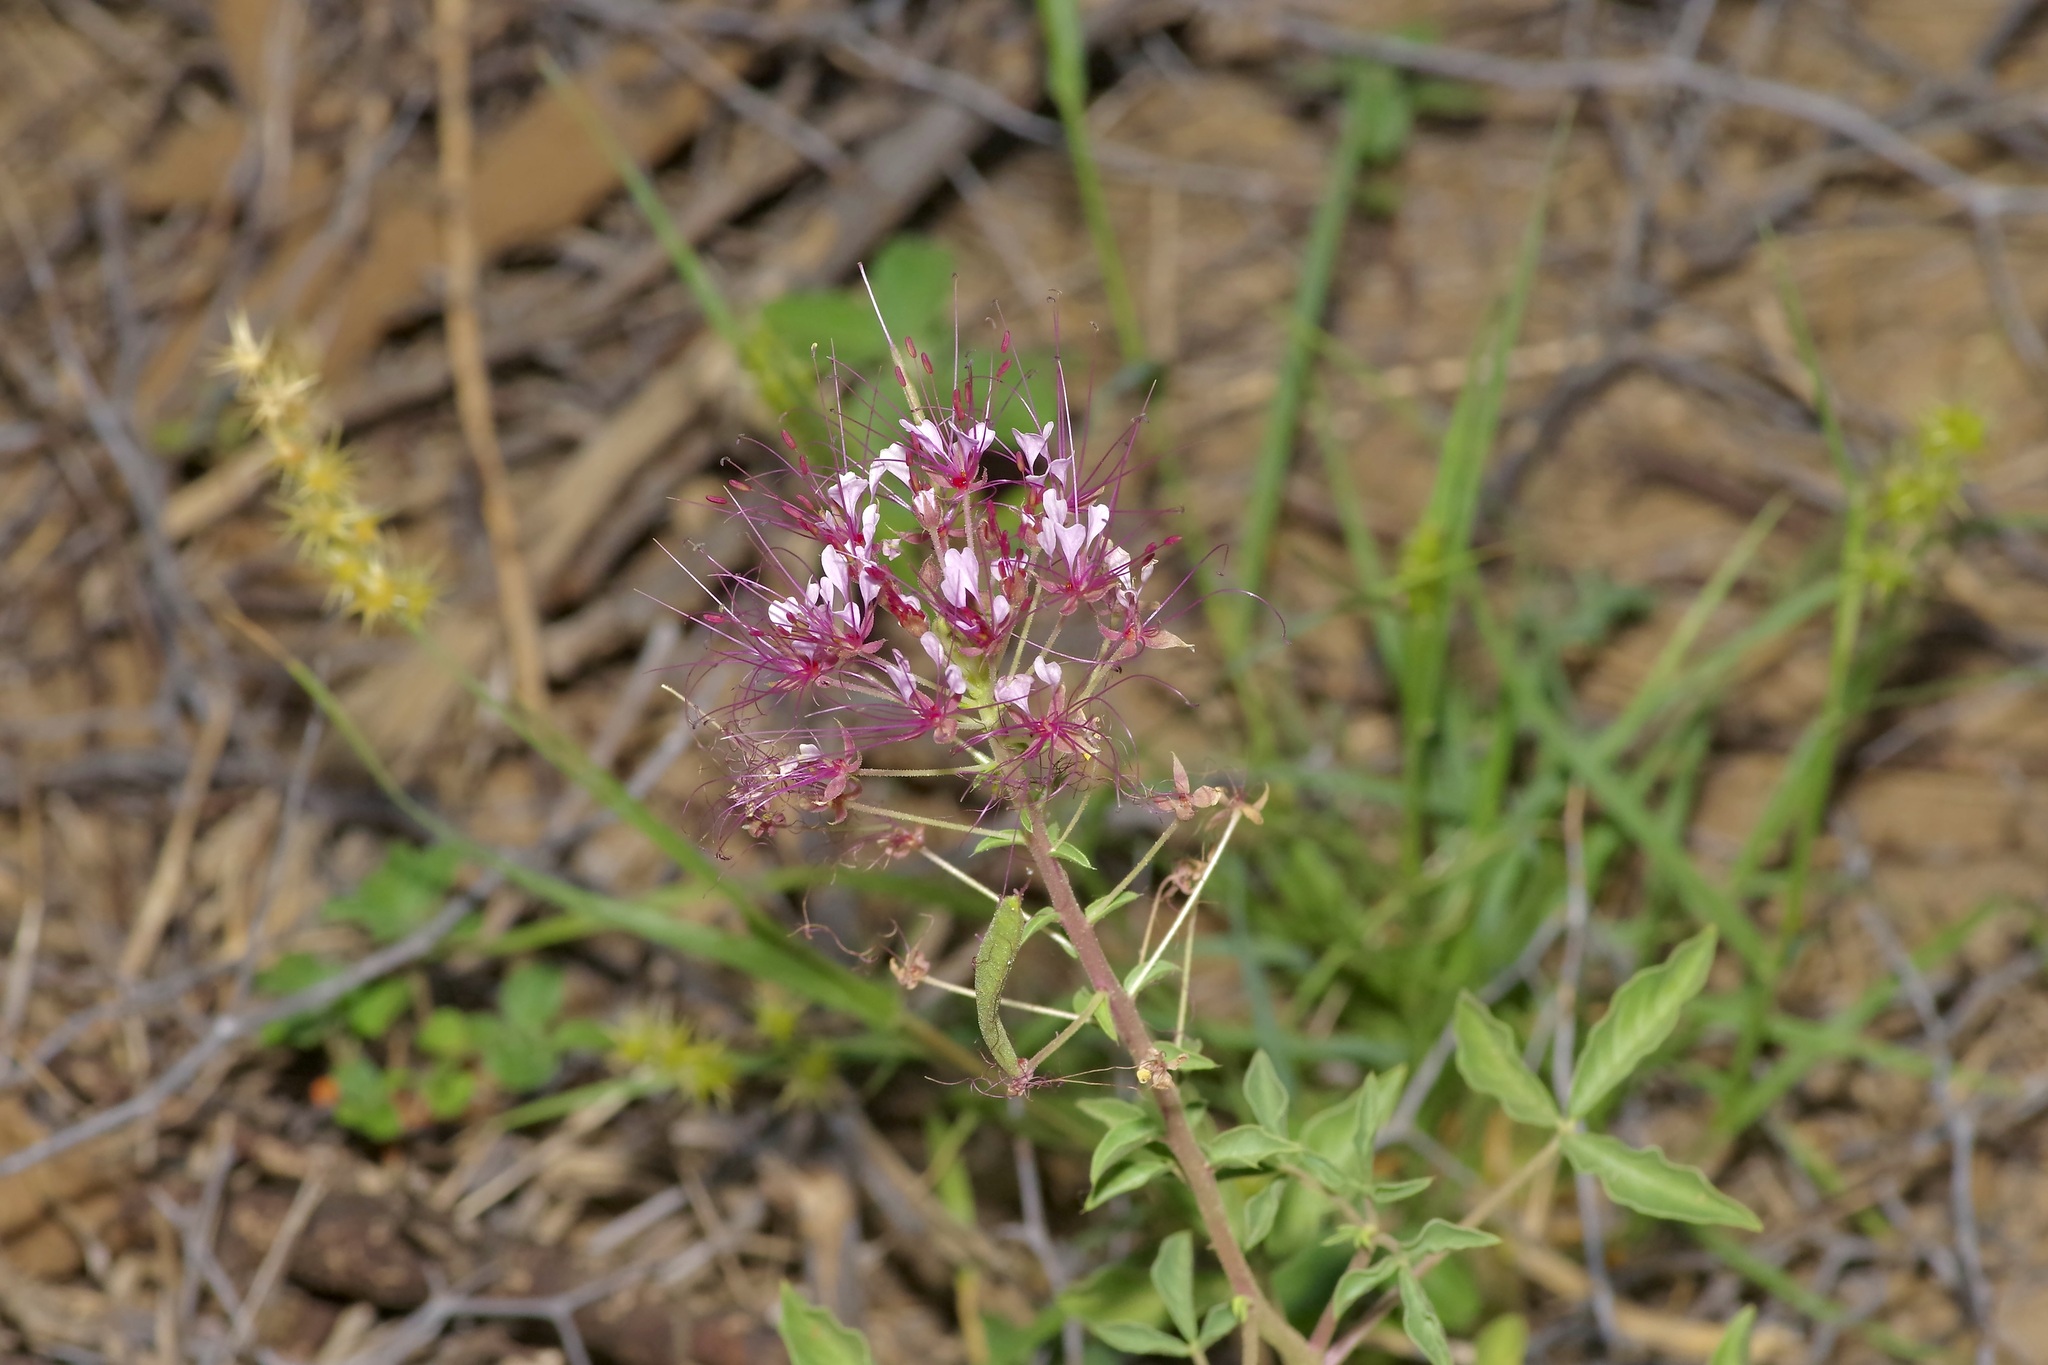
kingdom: Plantae
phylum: Tracheophyta
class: Magnoliopsida
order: Brassicales
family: Cleomaceae
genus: Polanisia
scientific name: Polanisia dodecandra
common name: Clammyweed
